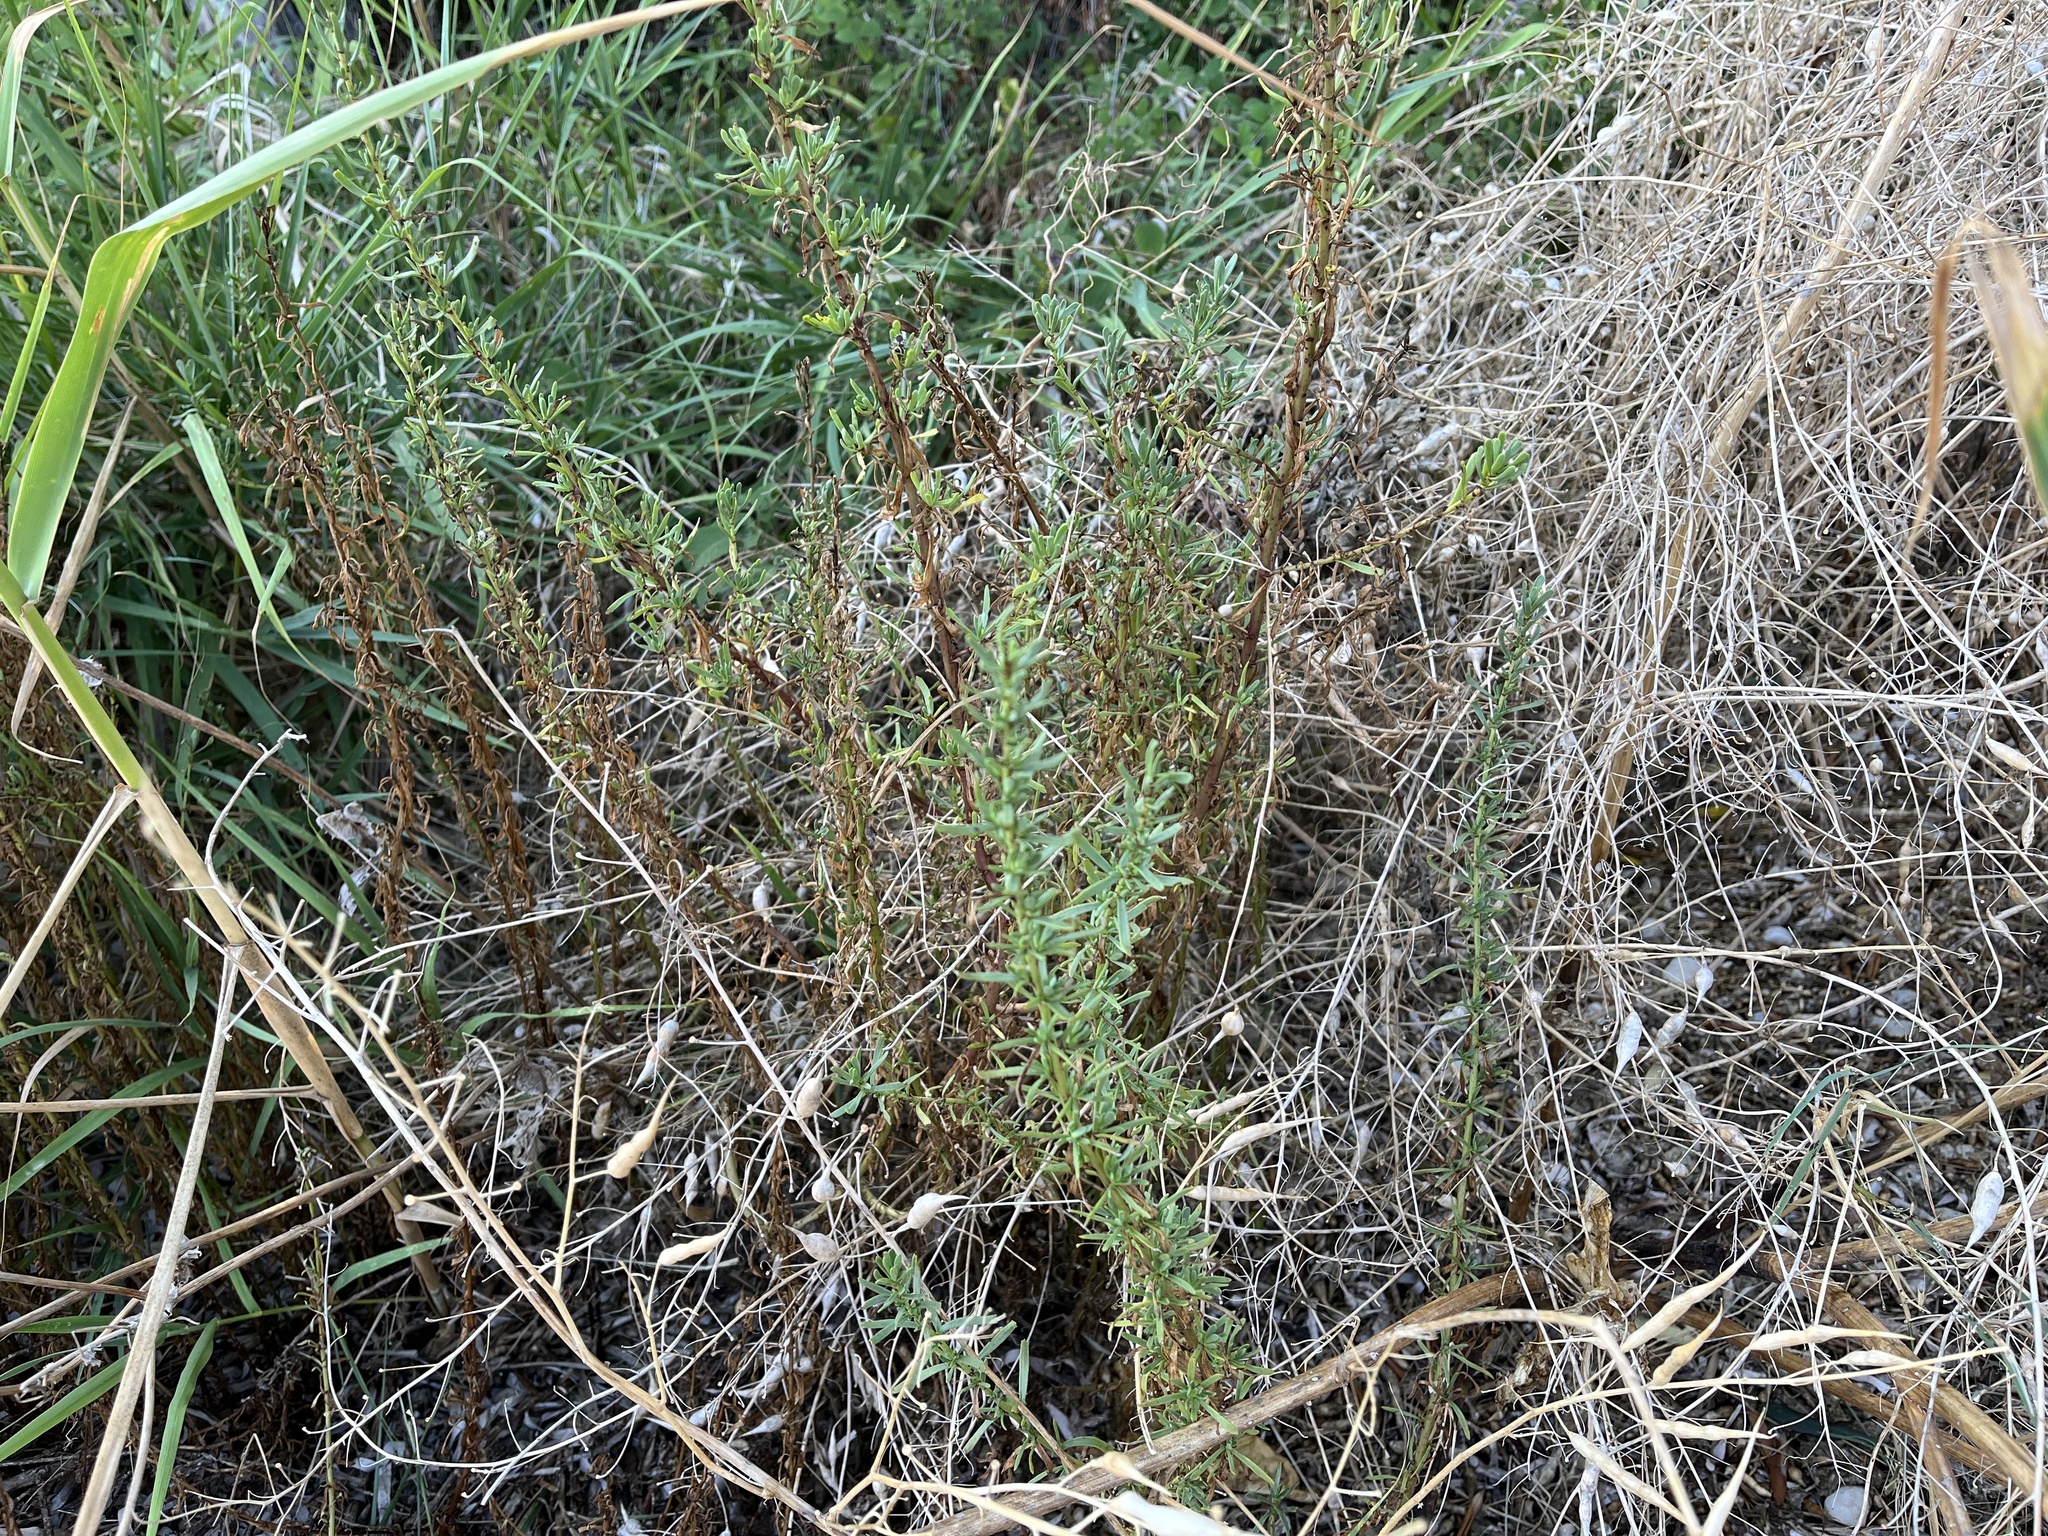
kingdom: Plantae
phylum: Tracheophyta
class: Magnoliopsida
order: Asterales
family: Asteraceae
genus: Limbarda
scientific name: Limbarda crithmoides
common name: Golden samphire
